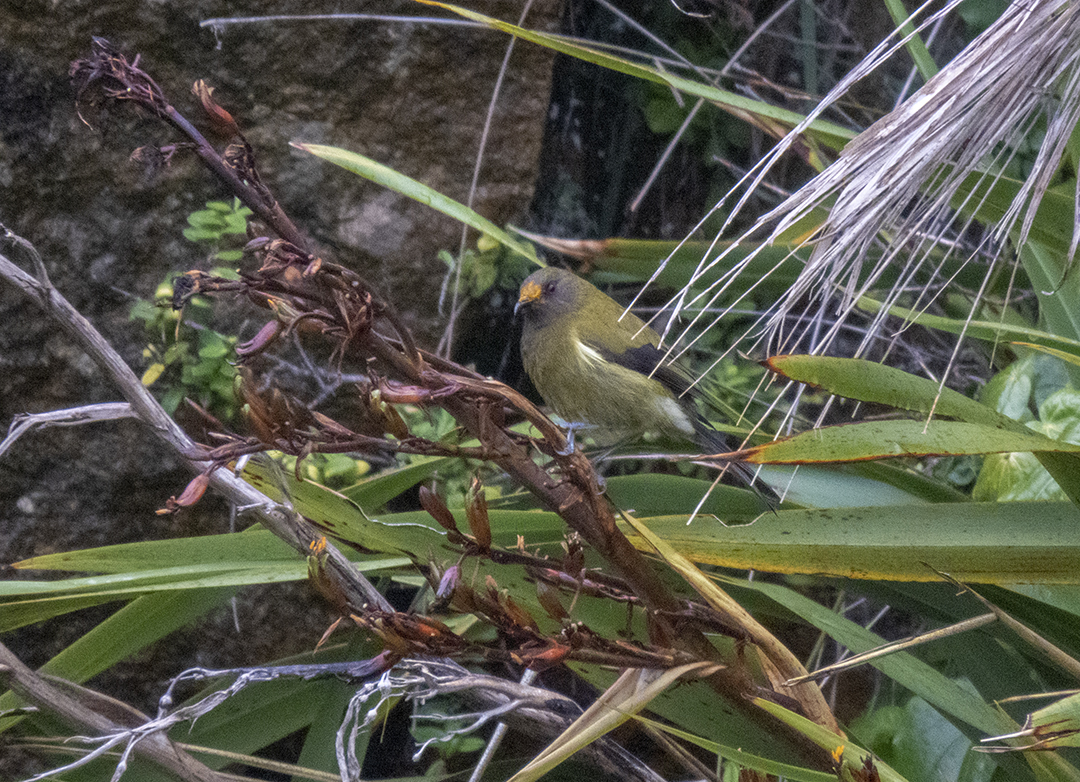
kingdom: Animalia
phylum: Chordata
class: Aves
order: Passeriformes
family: Meliphagidae
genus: Anthornis
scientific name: Anthornis melanura
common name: New zealand bellbird
